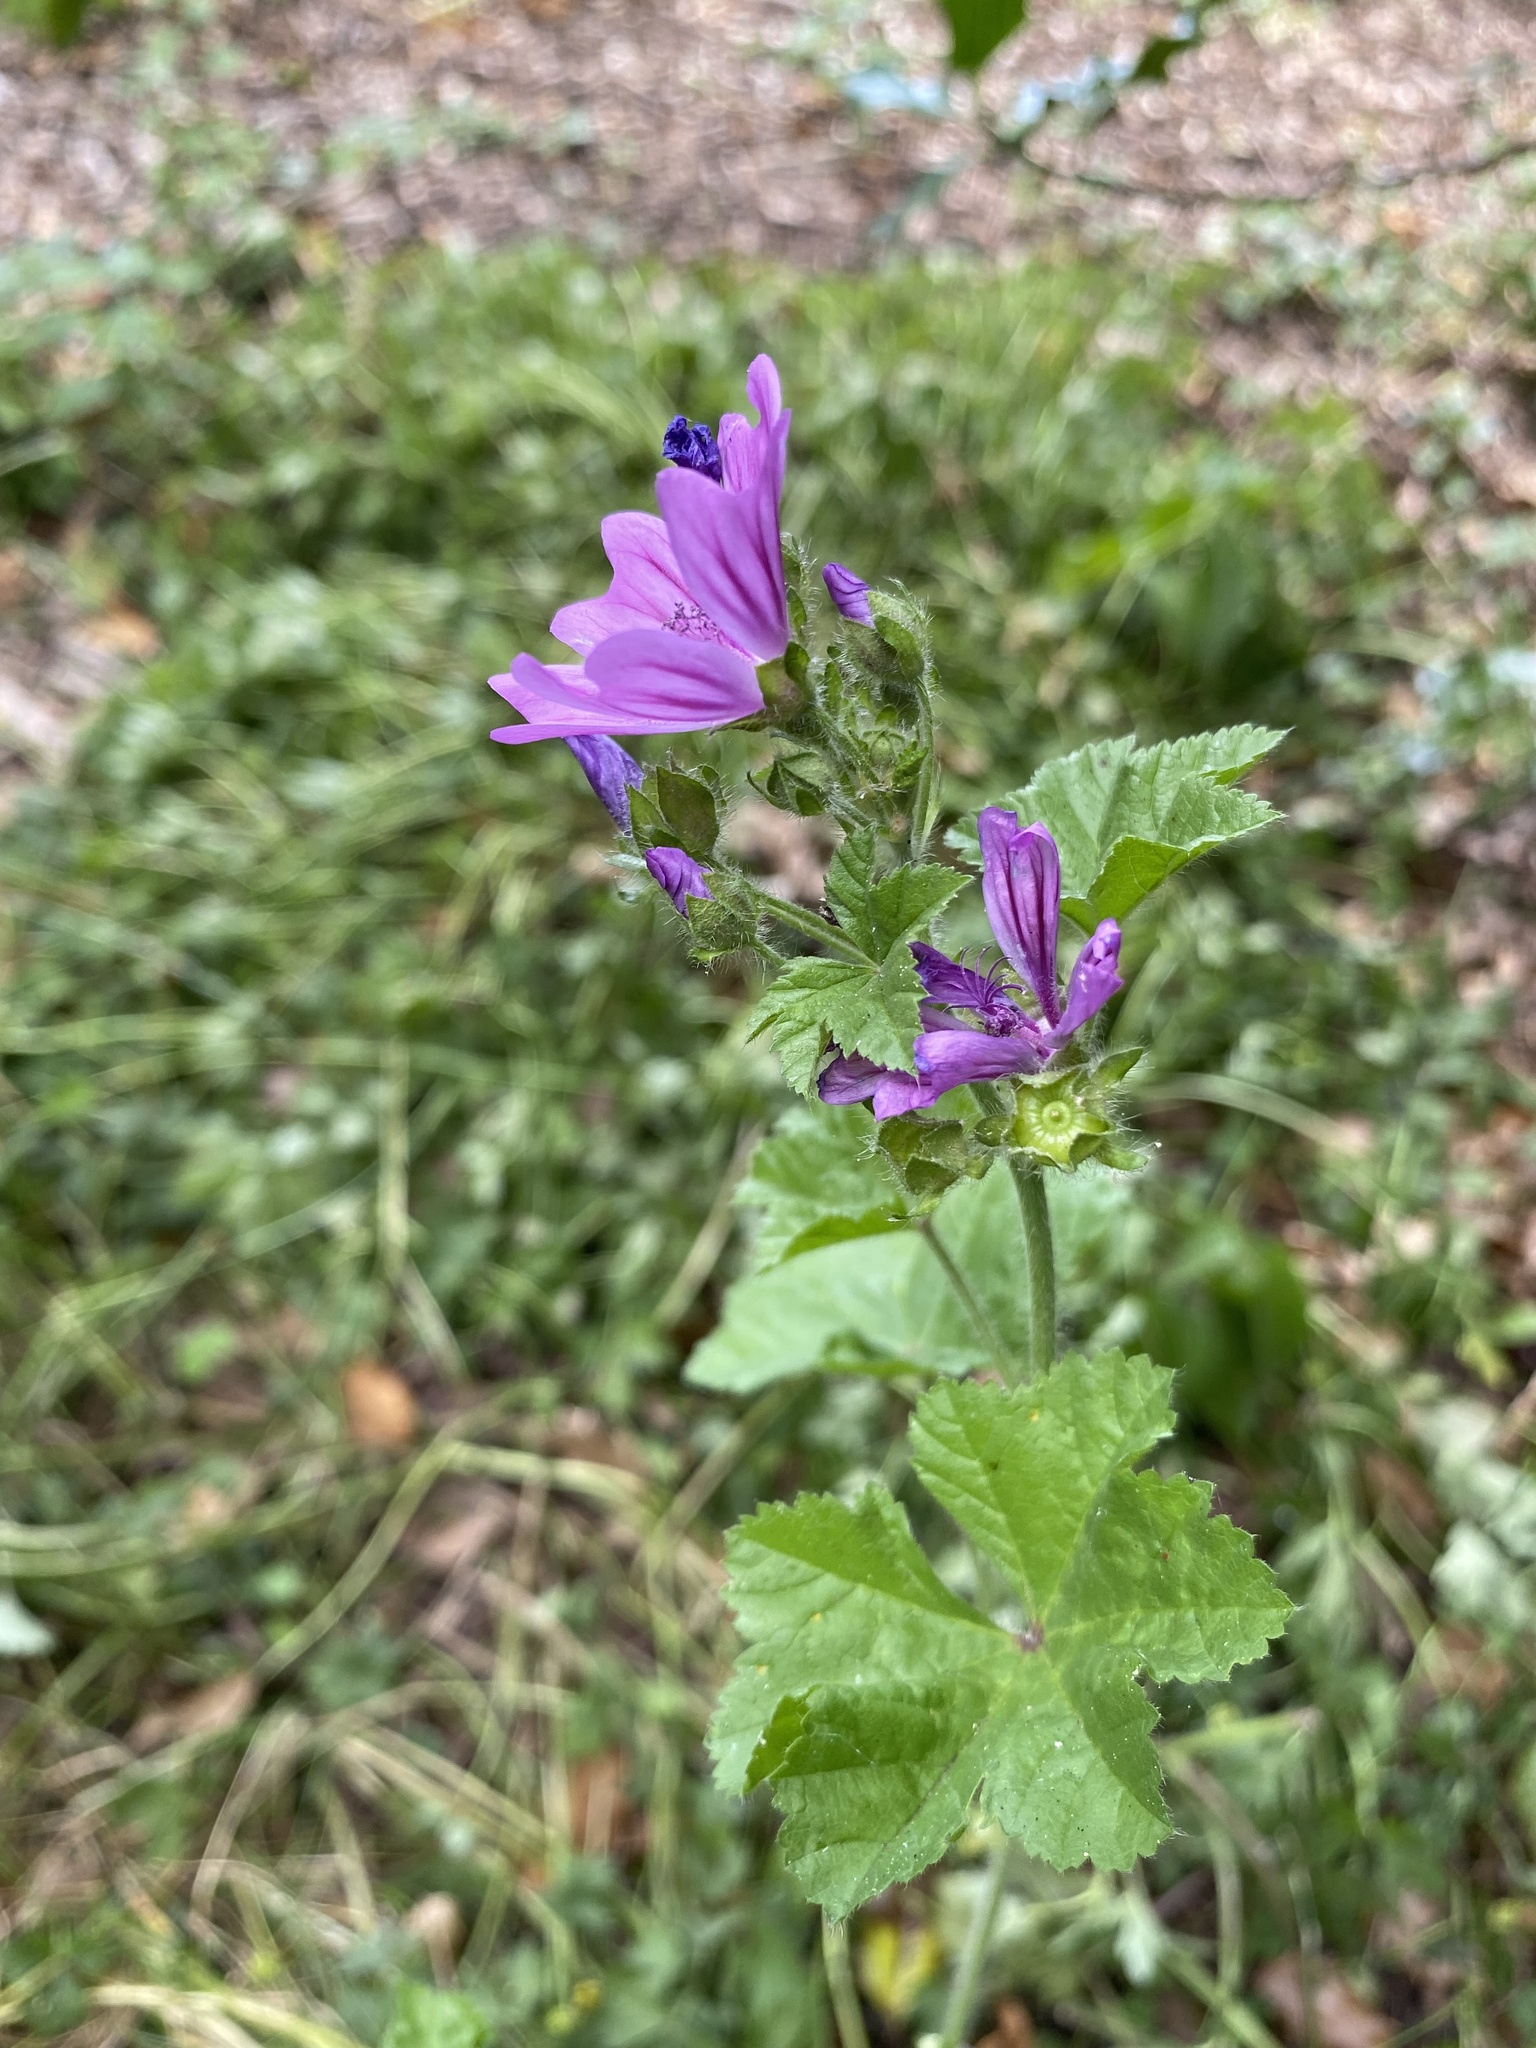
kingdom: Plantae
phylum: Tracheophyta
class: Magnoliopsida
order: Malvales
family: Malvaceae
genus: Malva
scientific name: Malva sylvestris
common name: Common mallow
